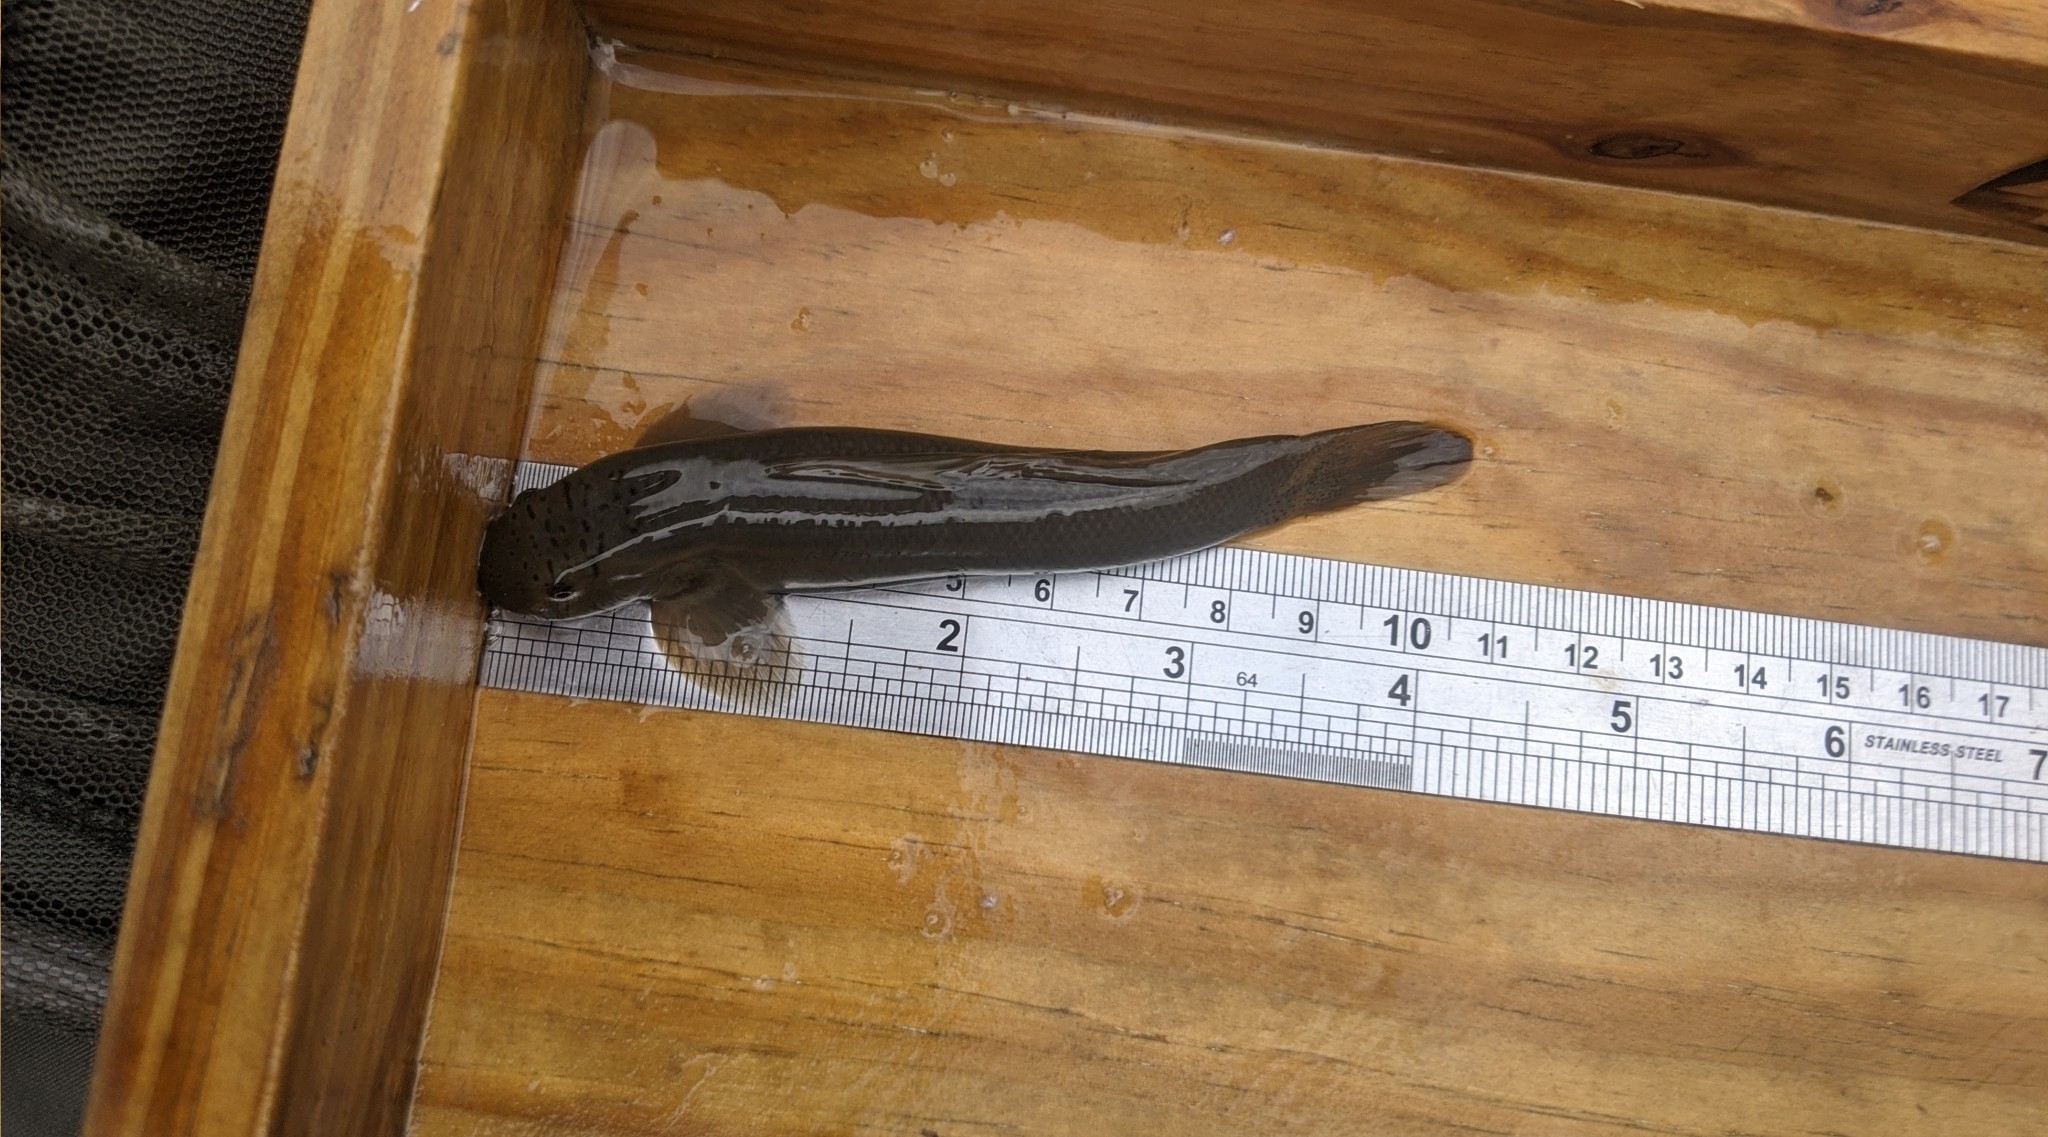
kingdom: Animalia
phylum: Chordata
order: Perciformes
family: Gobiidae
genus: Sicyopterus
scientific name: Sicyopterus japonicus
